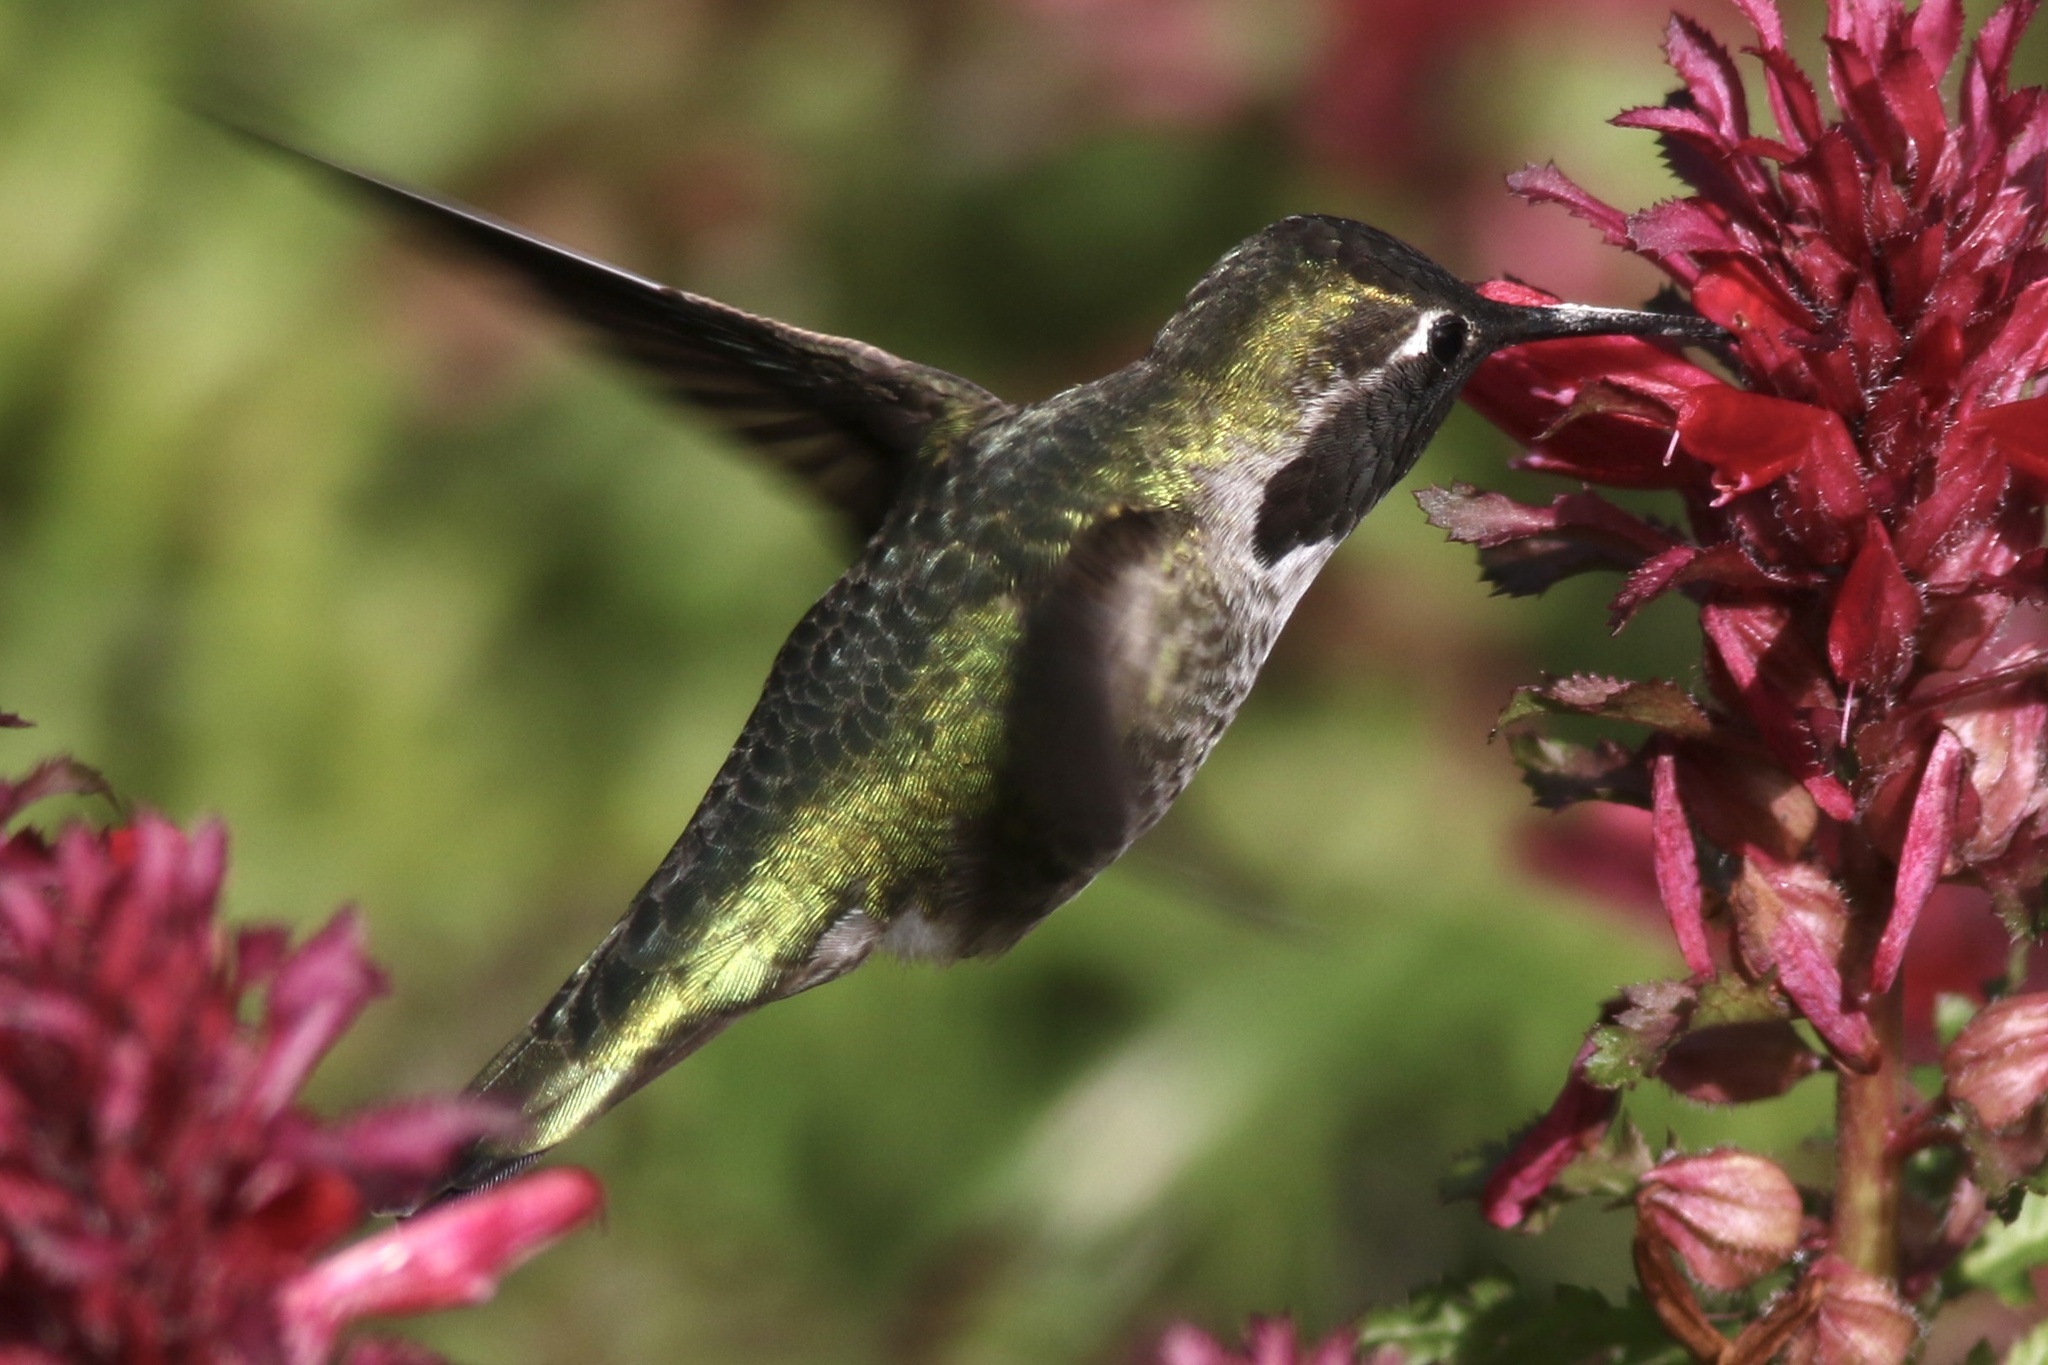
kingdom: Animalia
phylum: Chordata
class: Aves
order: Apodiformes
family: Trochilidae
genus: Calypte
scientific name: Calypte anna
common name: Anna's hummingbird
